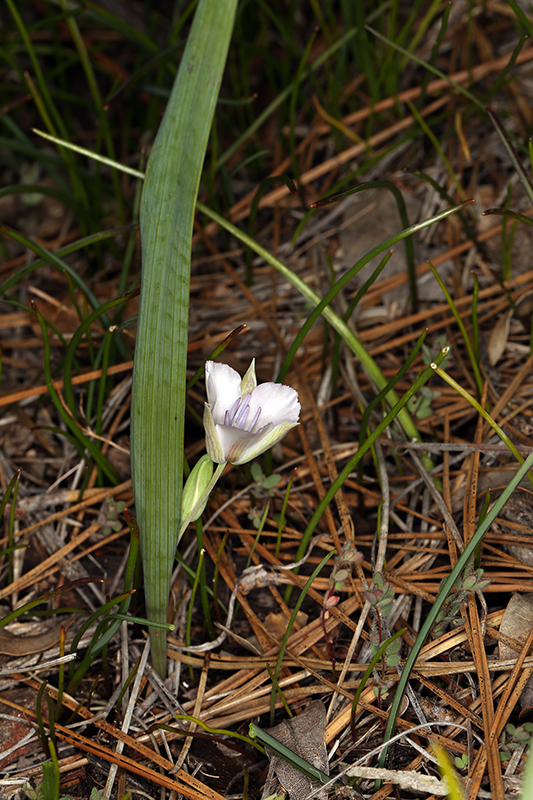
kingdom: Plantae
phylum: Tracheophyta
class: Liliopsida
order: Liliales
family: Liliaceae
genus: Calochortus
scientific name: Calochortus minimus
